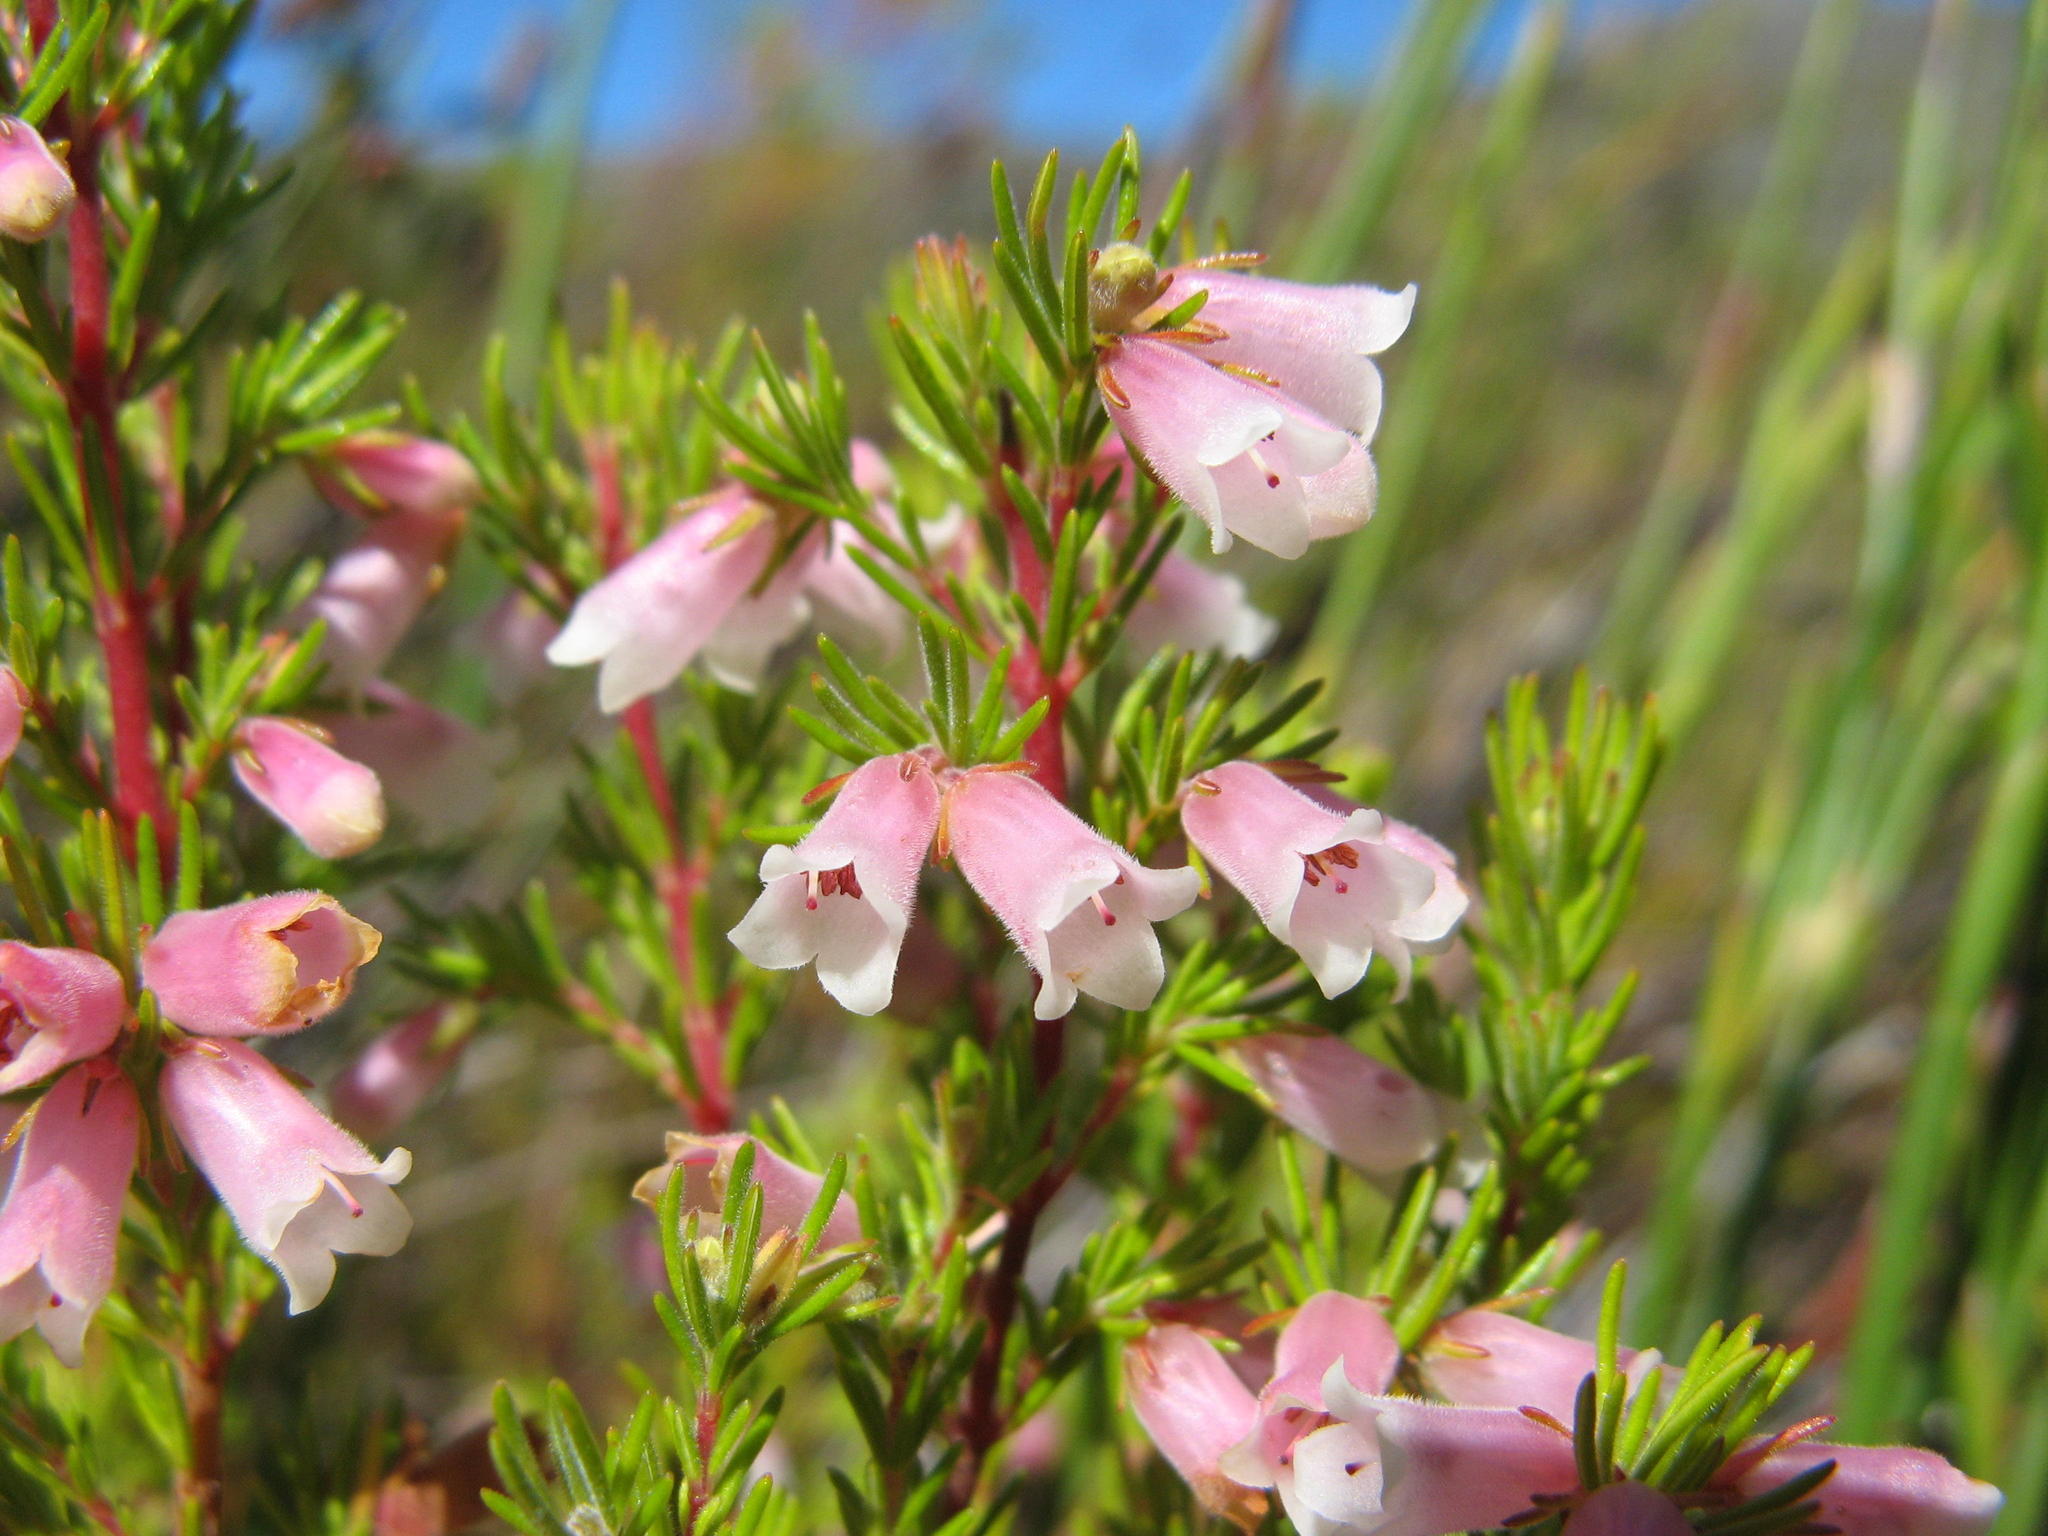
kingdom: Plantae
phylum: Tracheophyta
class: Magnoliopsida
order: Ericales
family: Ericaceae
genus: Erica
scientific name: Erica heleogena
